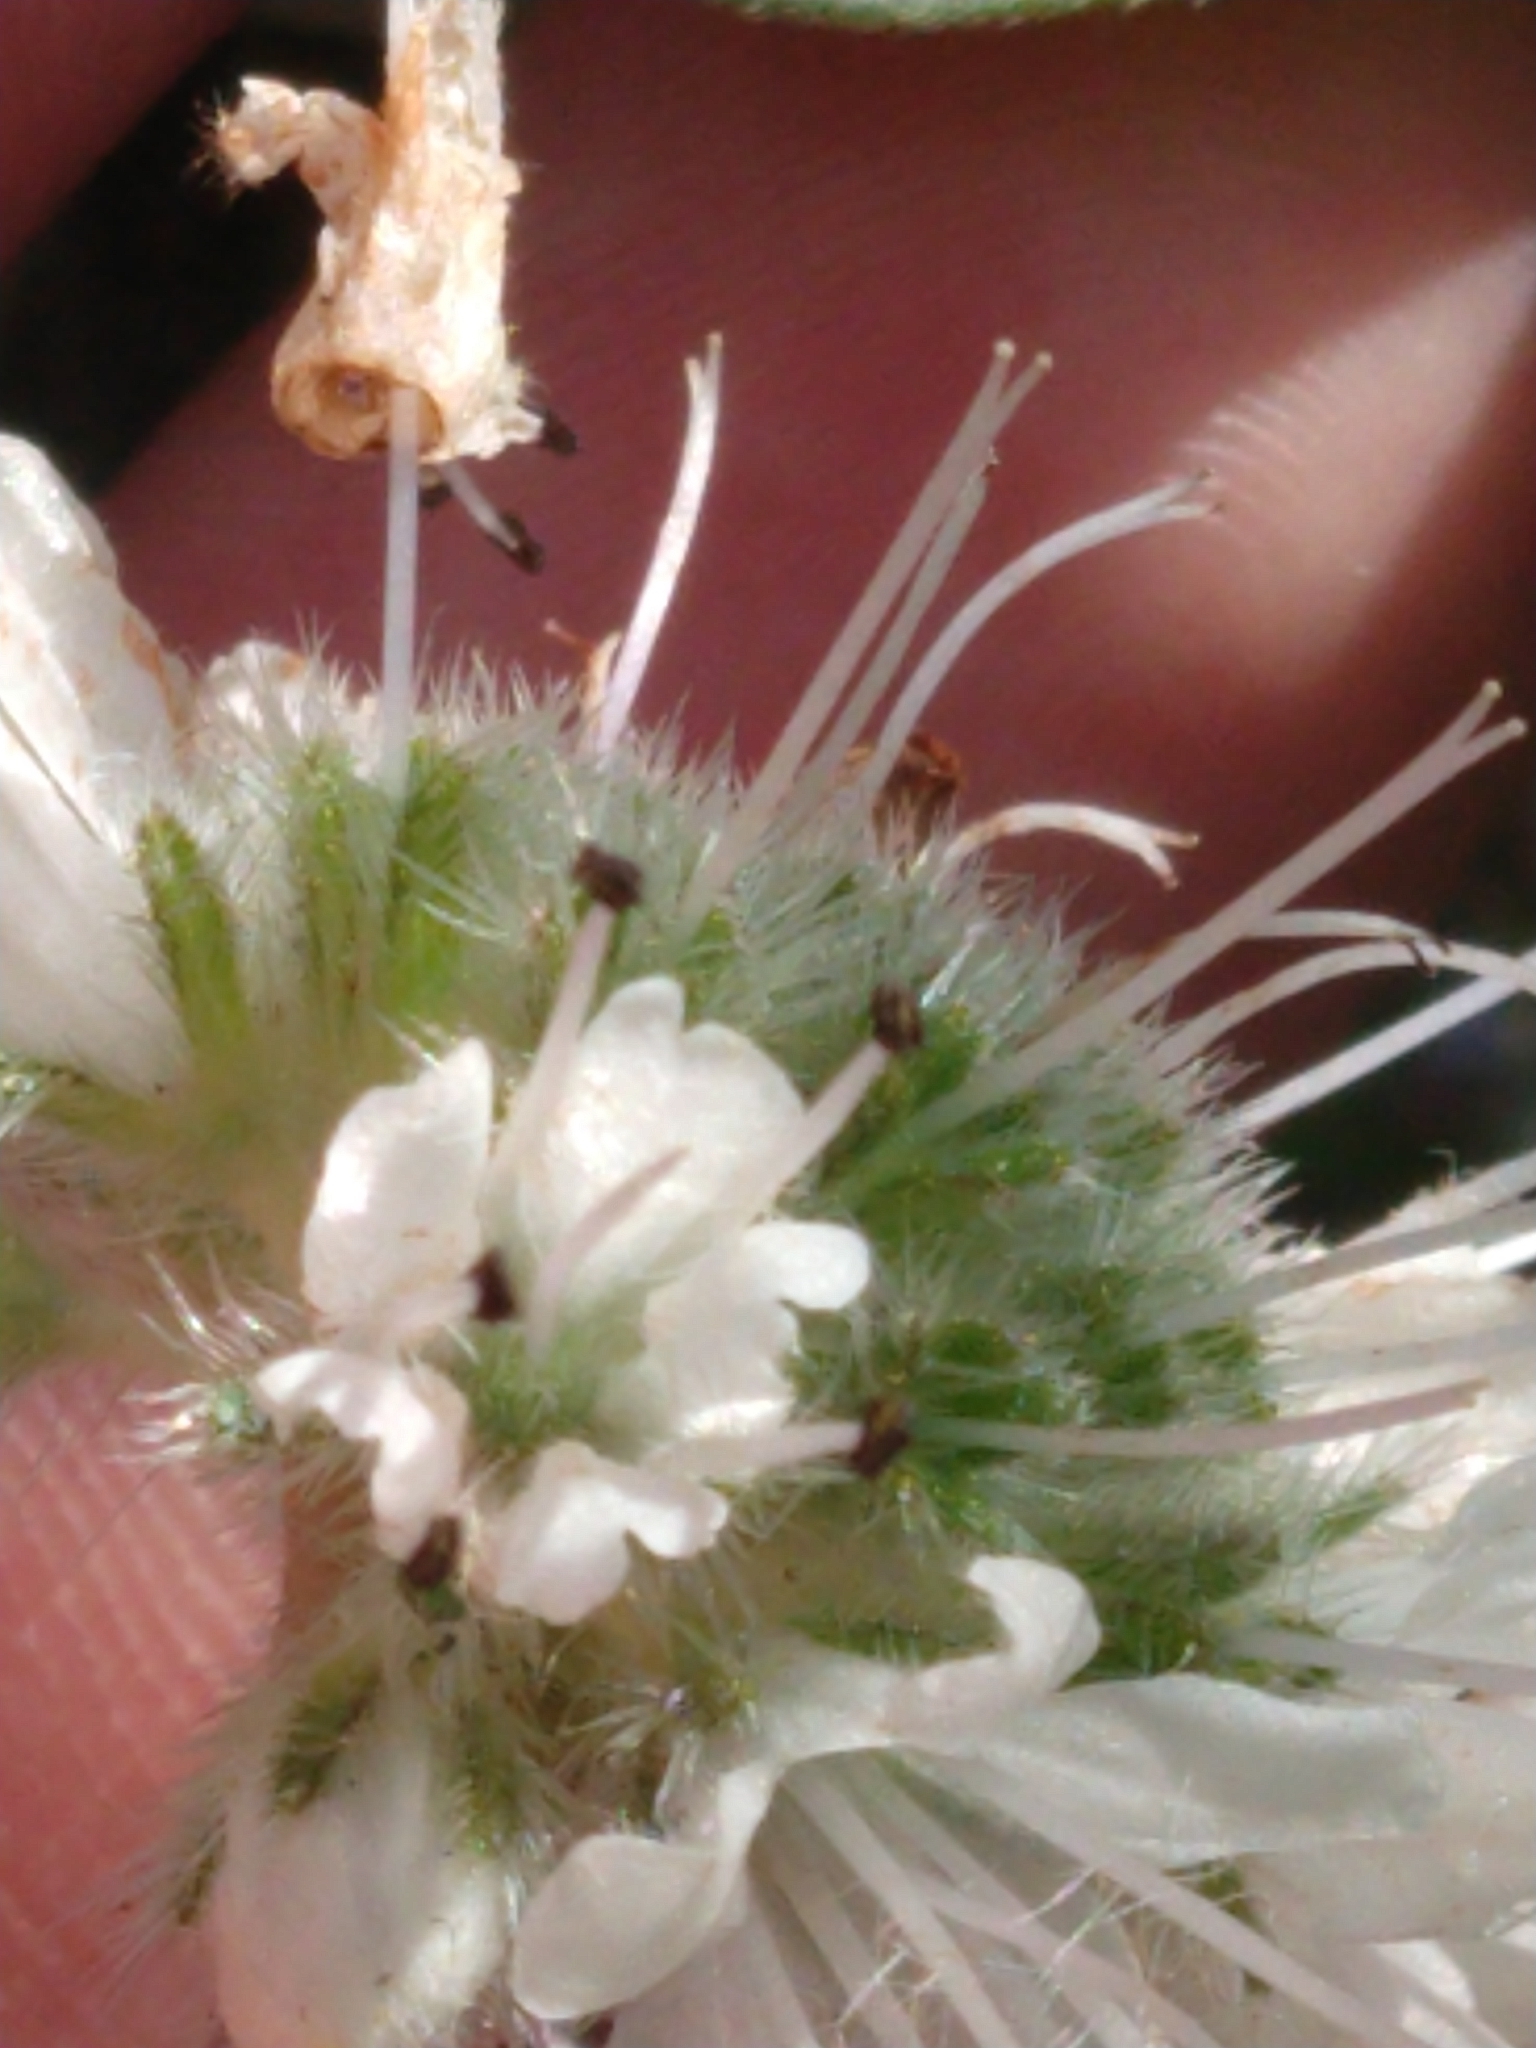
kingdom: Plantae
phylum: Tracheophyta
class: Magnoliopsida
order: Boraginales
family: Hydrophyllaceae
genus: Hydrophyllum
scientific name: Hydrophyllum capitatum
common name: Woollen-breeches
